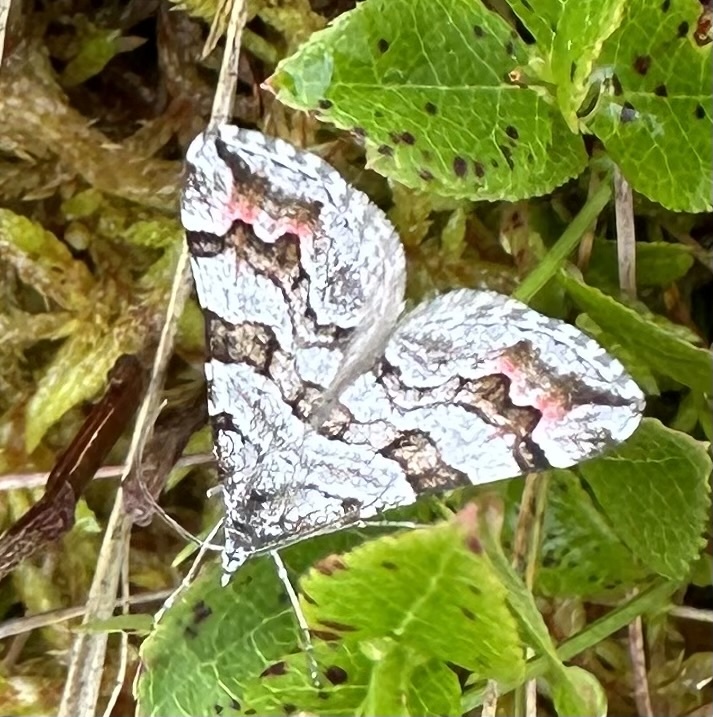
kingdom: Animalia
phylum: Arthropoda
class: Insecta
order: Lepidoptera
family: Geometridae
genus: Carsia
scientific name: Carsia sororiata
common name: Manchester treble-bar
